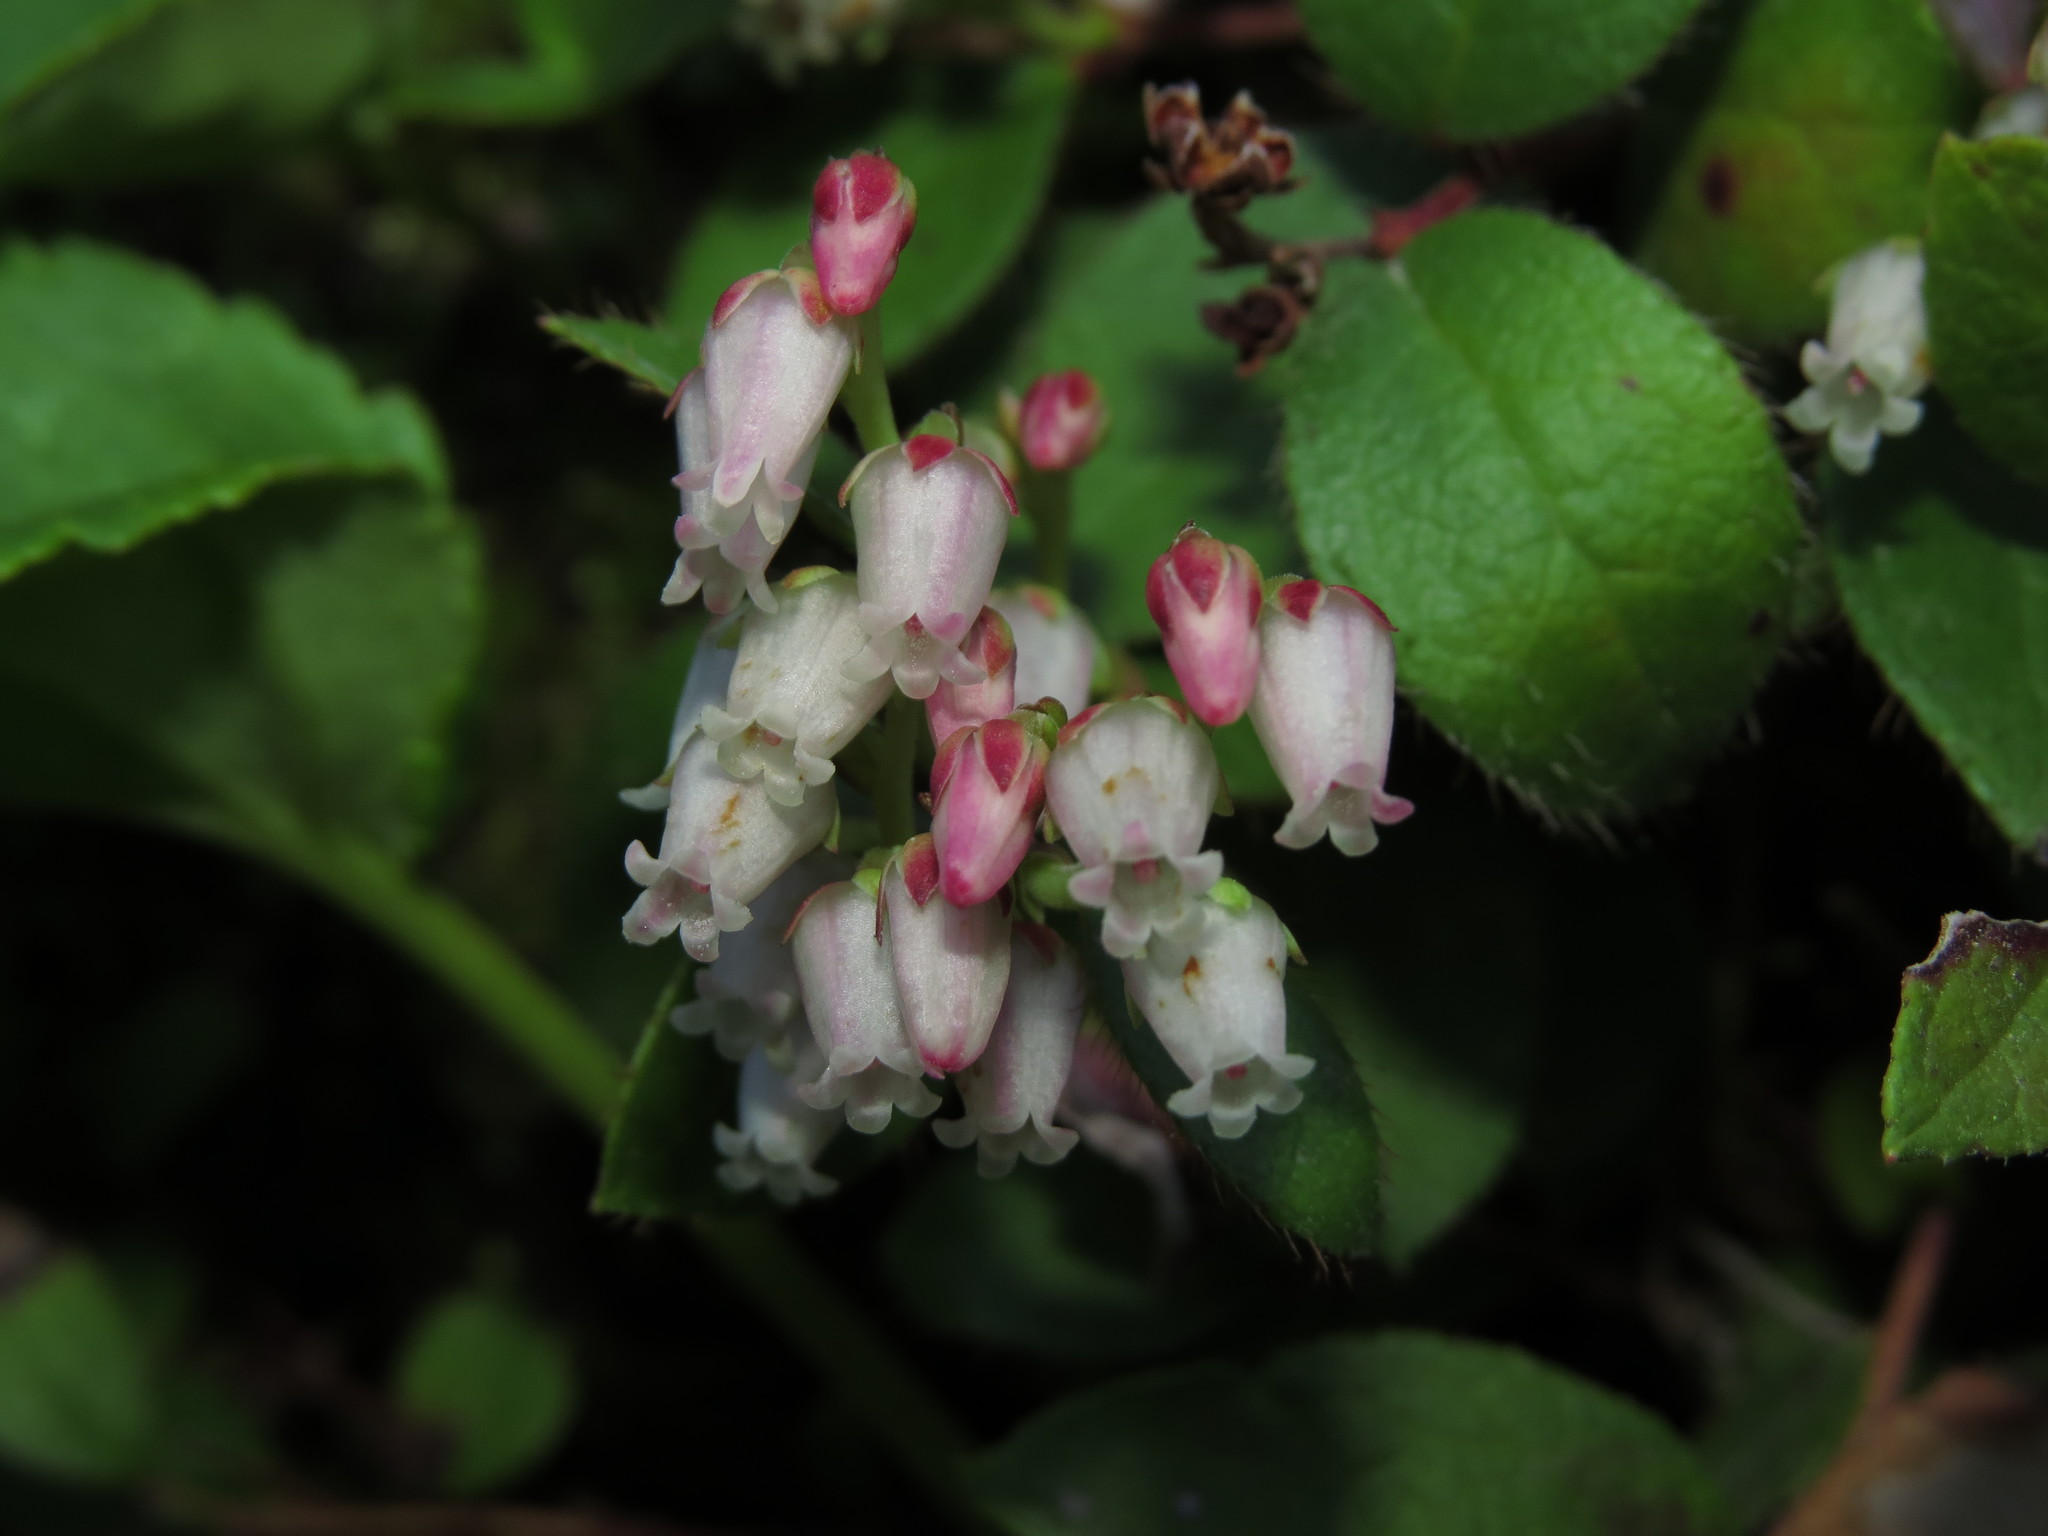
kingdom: Plantae
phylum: Tracheophyta
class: Magnoliopsida
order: Ericales
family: Ericaceae
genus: Gaultheria
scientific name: Gaultheria nubigena
